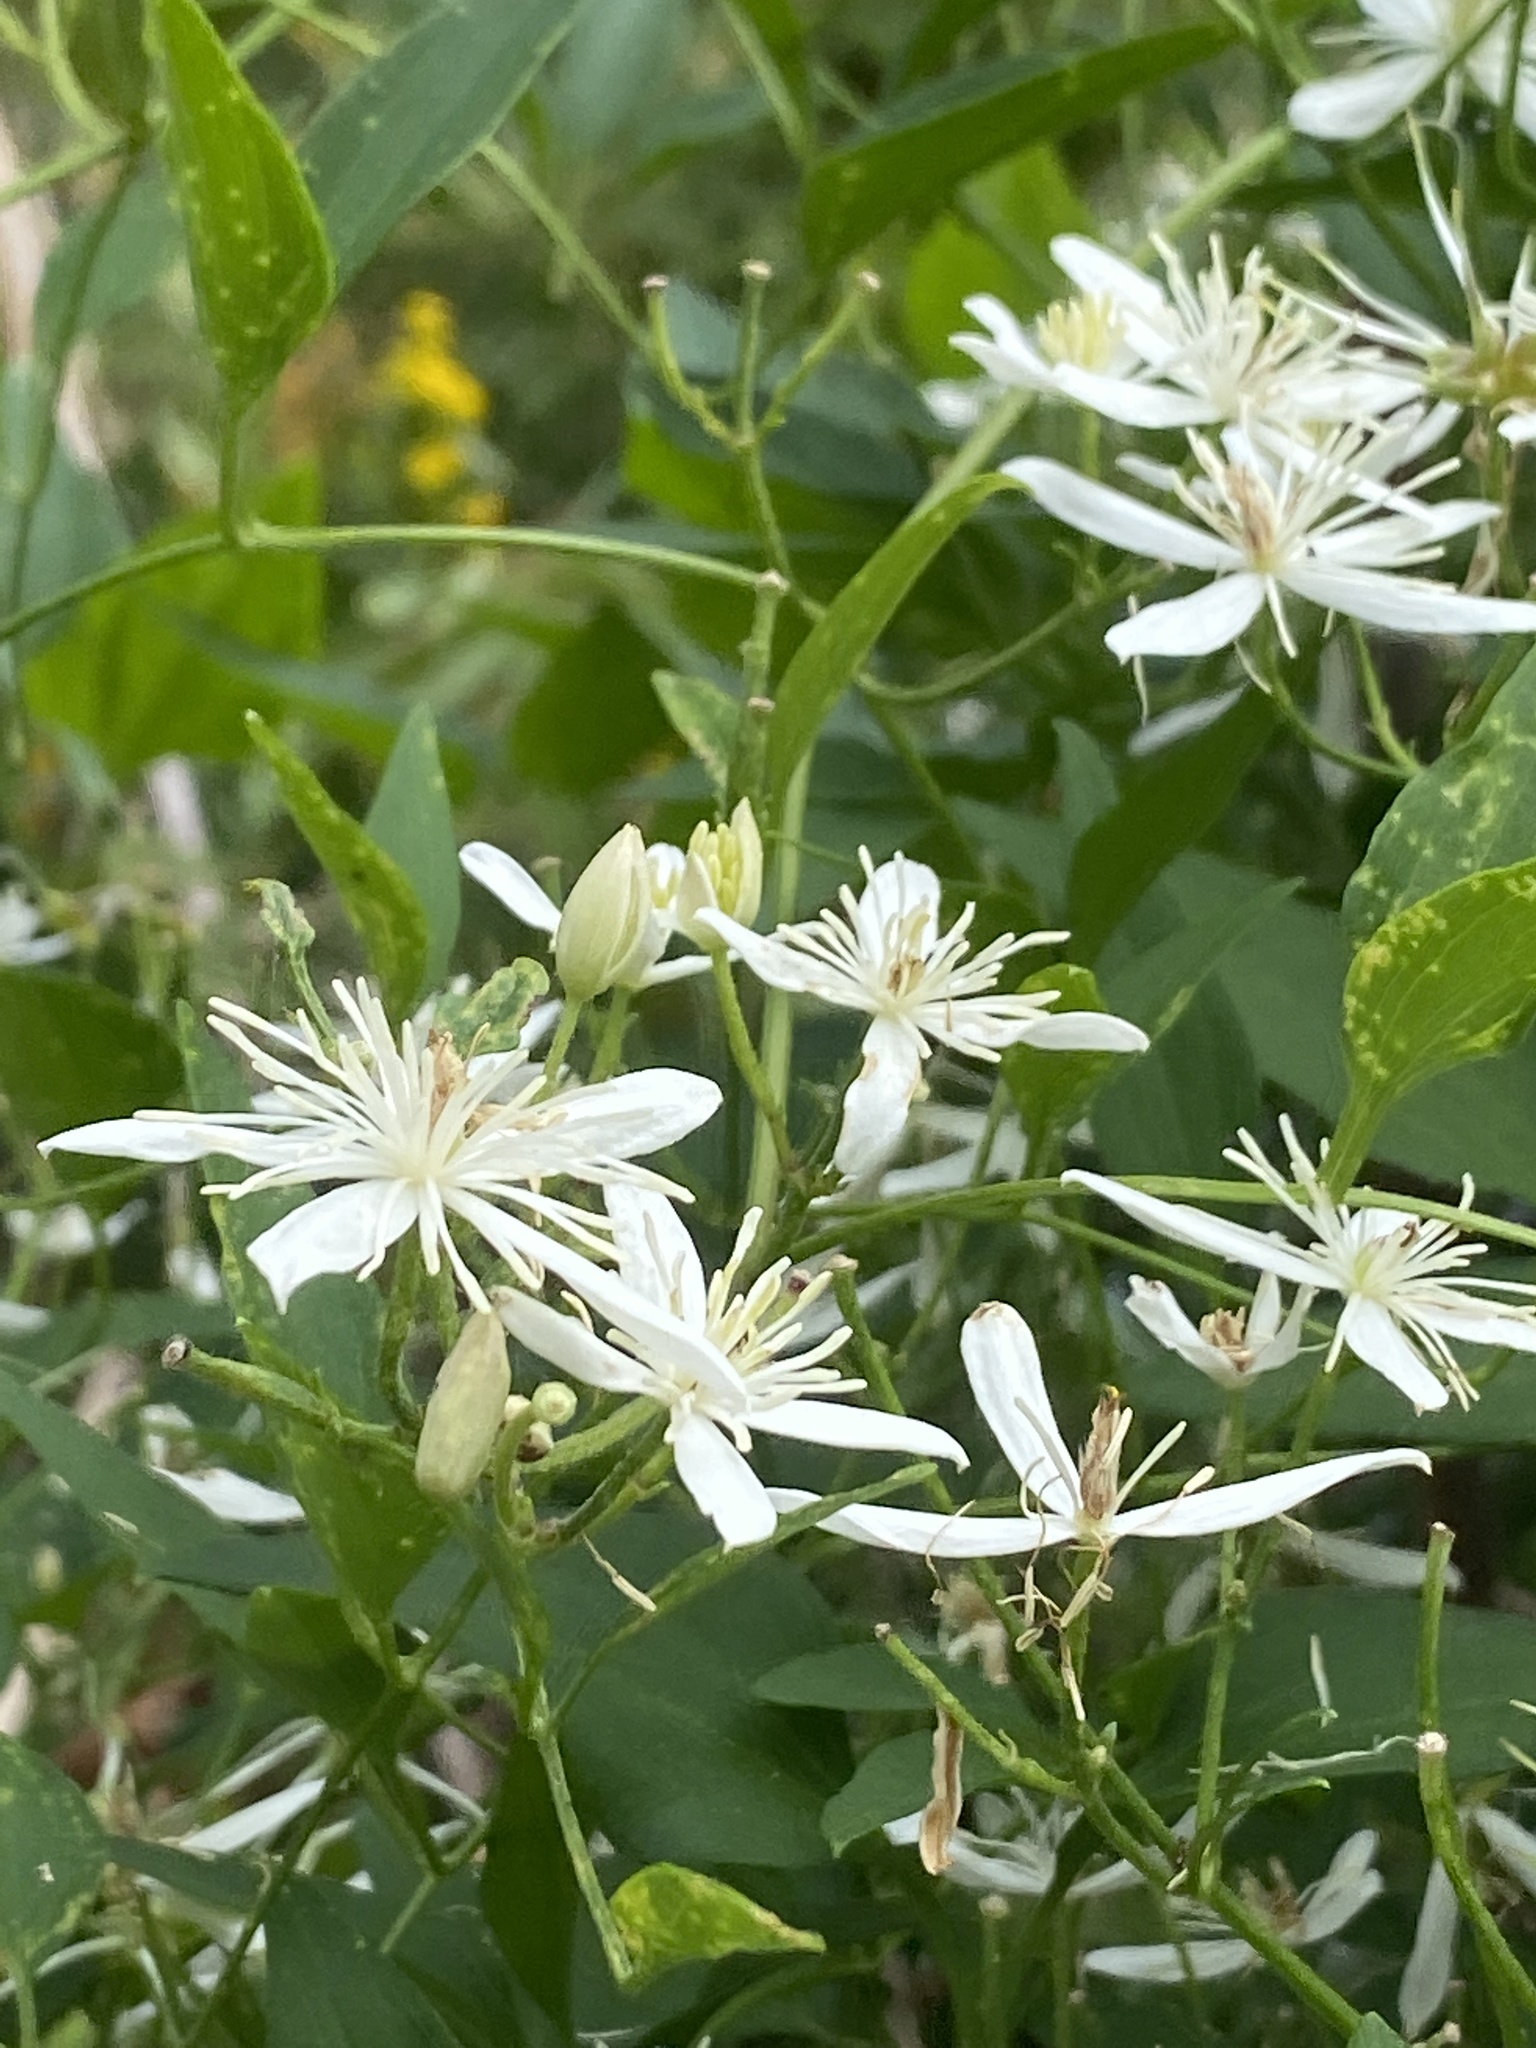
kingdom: Plantae
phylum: Tracheophyta
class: Magnoliopsida
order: Ranunculales
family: Ranunculaceae
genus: Clematis
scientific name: Clematis terniflora
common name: Sweet autumn clematis
